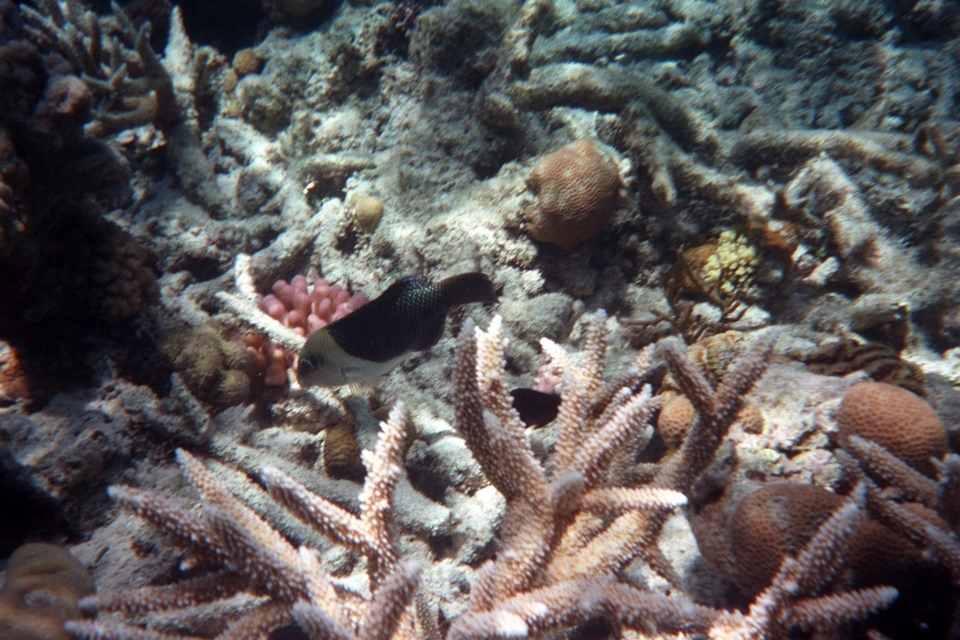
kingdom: Animalia
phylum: Chordata
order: Perciformes
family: Labridae
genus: Hemigymnus
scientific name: Hemigymnus melapterus
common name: Blackeye thicklip
